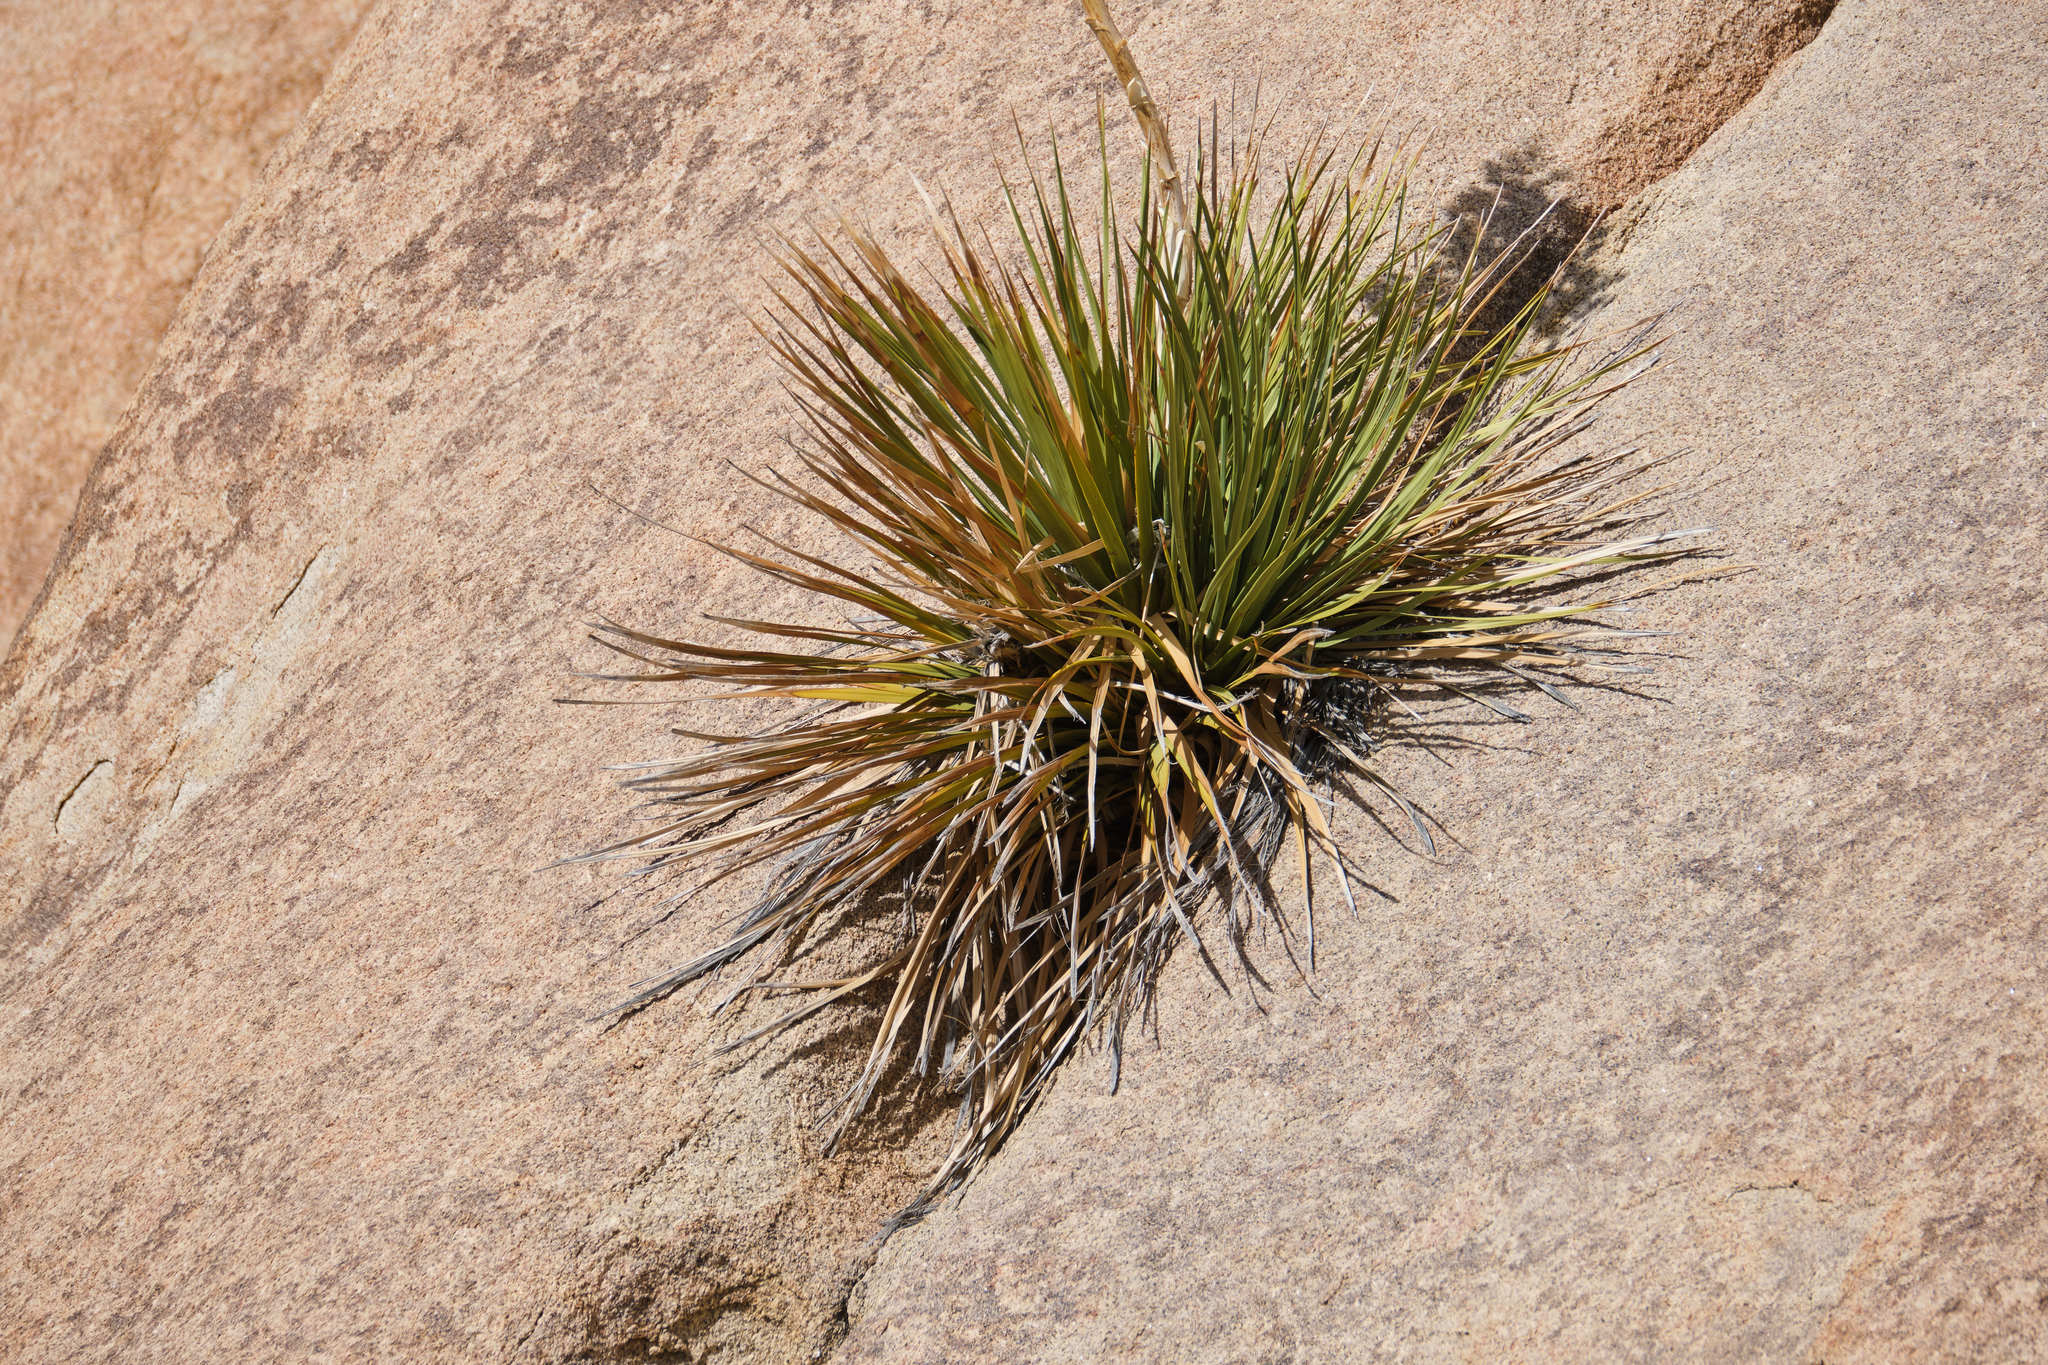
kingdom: Plantae
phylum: Tracheophyta
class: Liliopsida
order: Asparagales
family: Asparagaceae
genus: Nolina
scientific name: Nolina parryi
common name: Parry nolina
